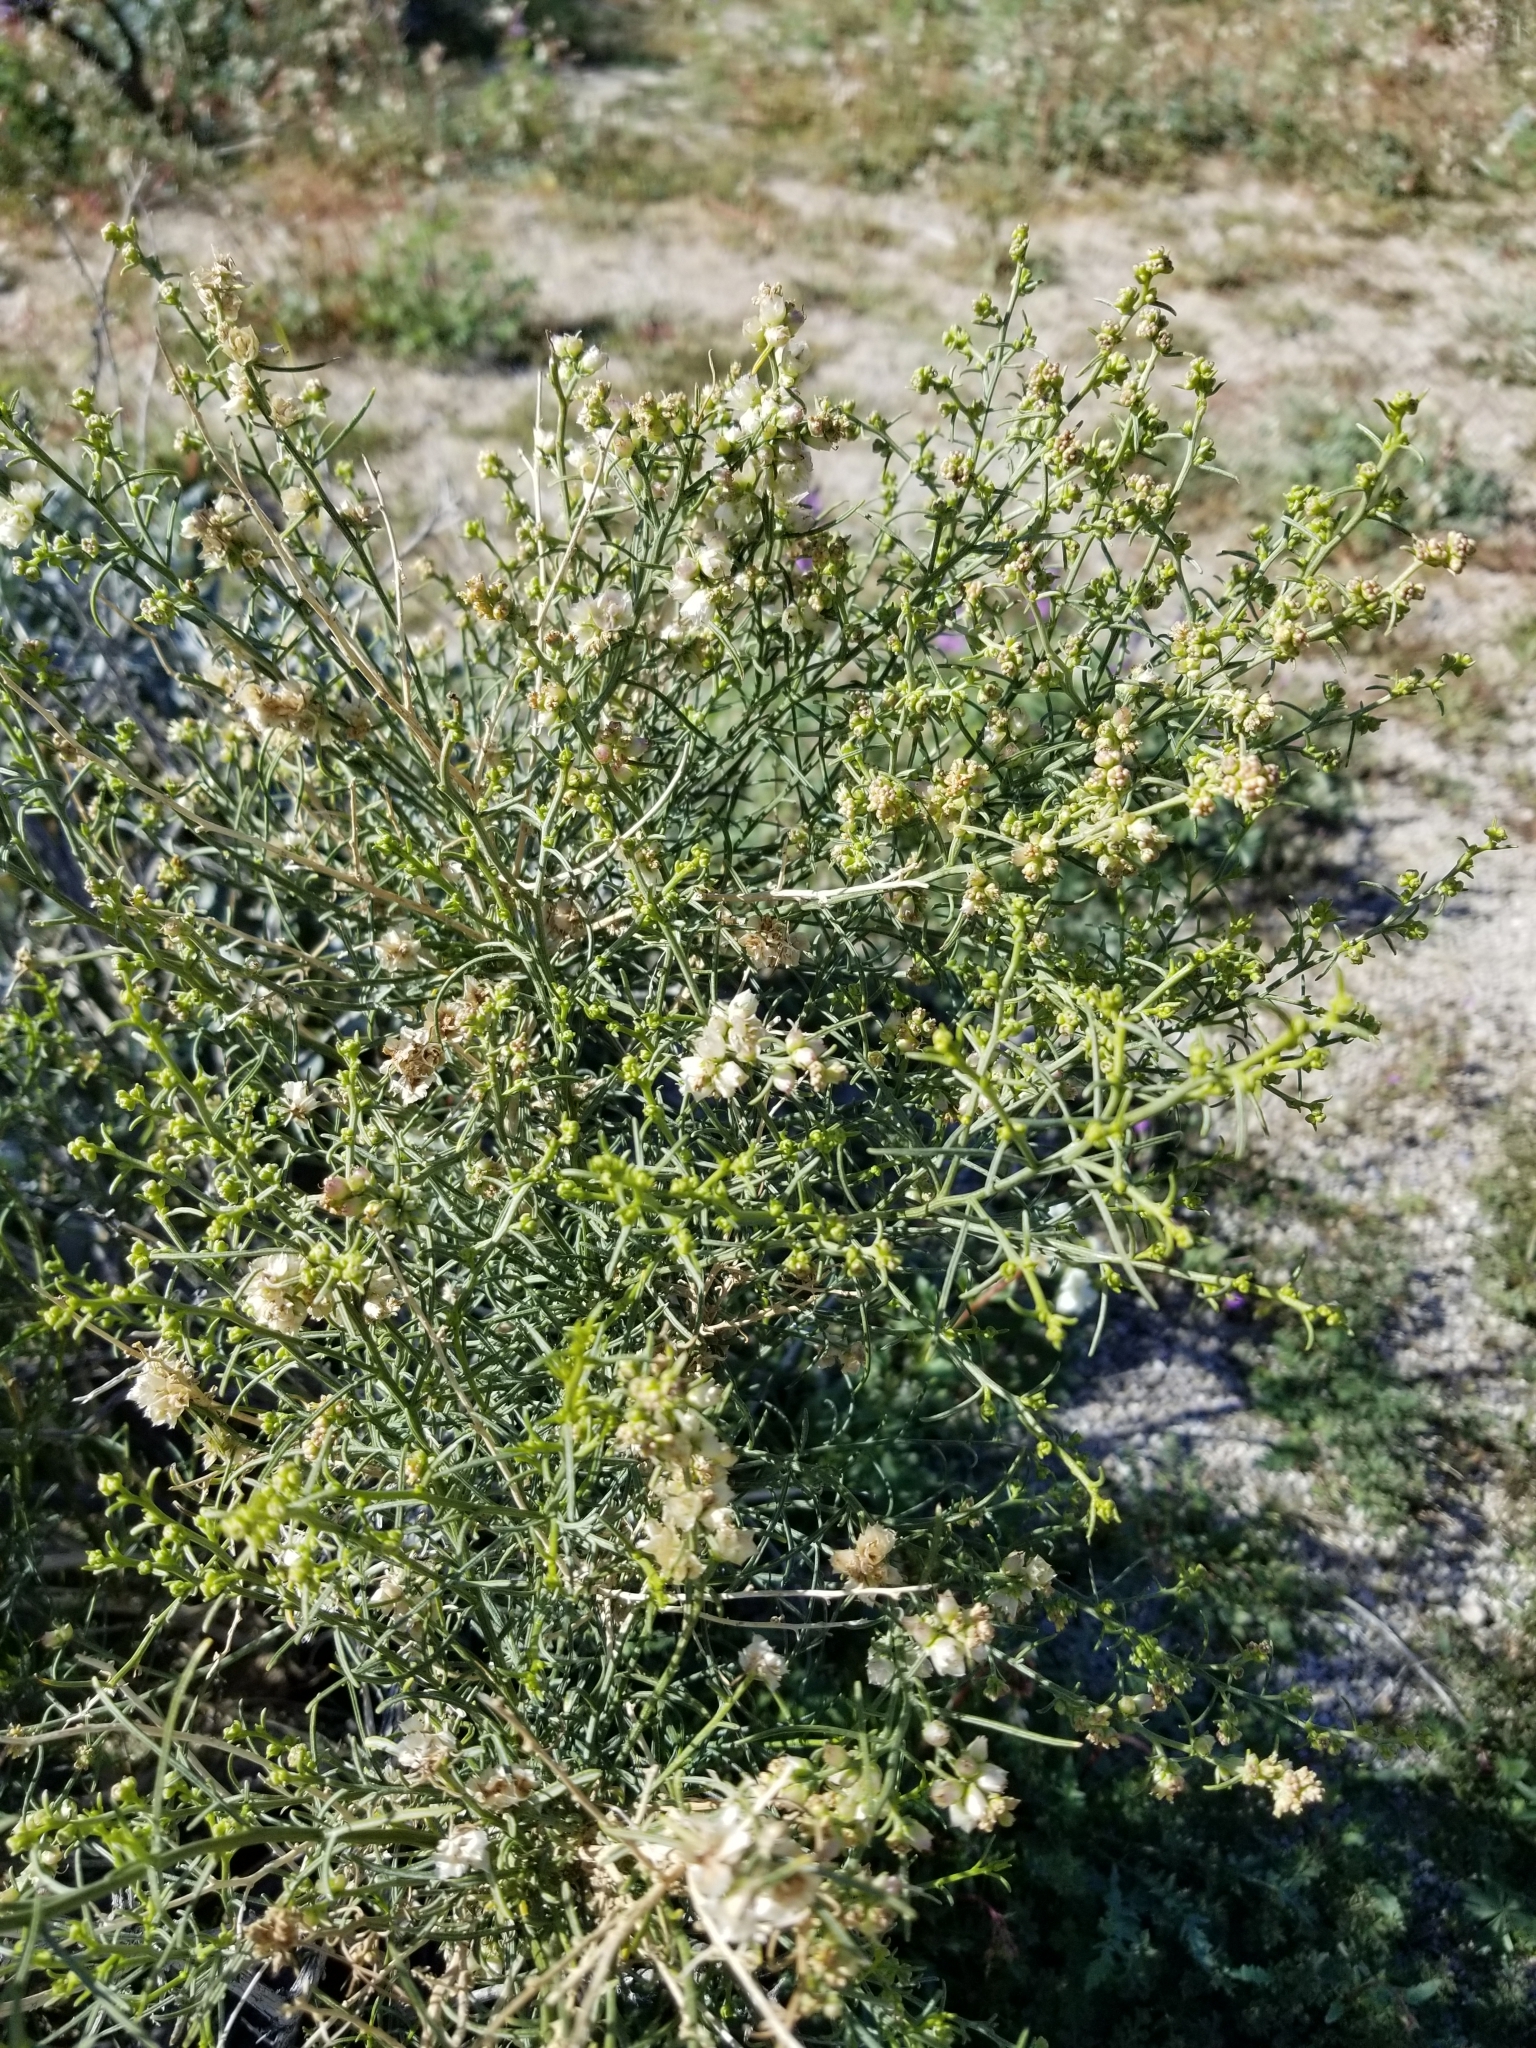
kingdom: Plantae
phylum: Tracheophyta
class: Magnoliopsida
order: Asterales
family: Asteraceae
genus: Ambrosia
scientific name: Ambrosia salsola
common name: Burrobrush
